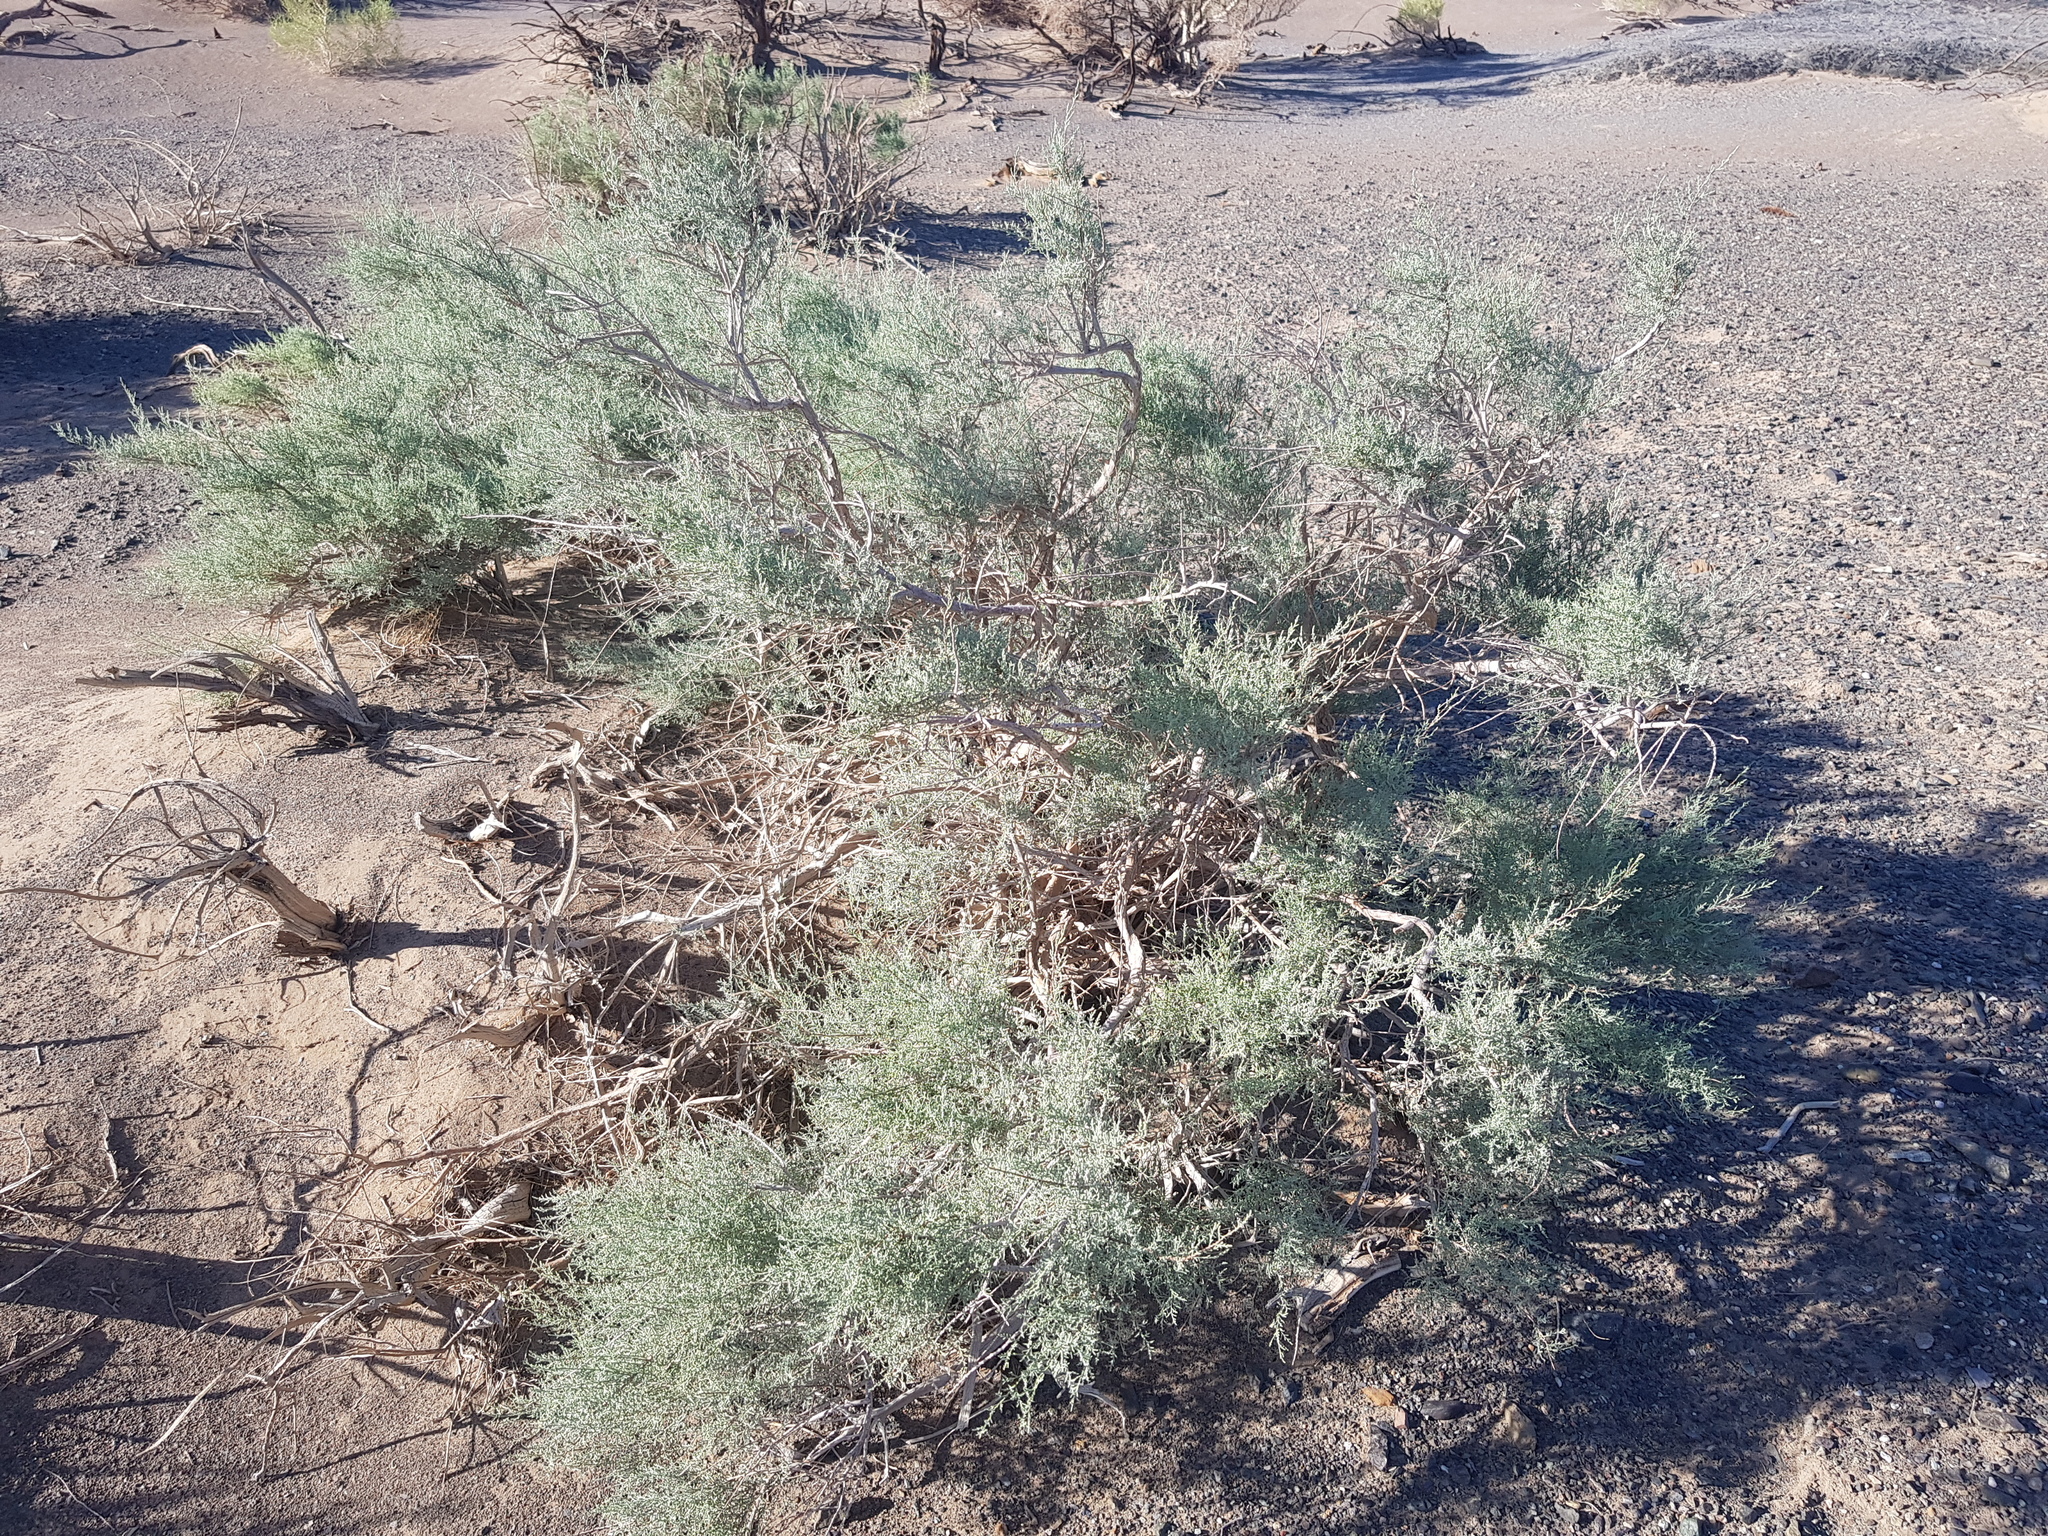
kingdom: Plantae
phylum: Tracheophyta
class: Magnoliopsida
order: Caryophyllales
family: Tamaricaceae
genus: Tamarix
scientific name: Tamarix ramosissima
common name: Pink tamarisk
